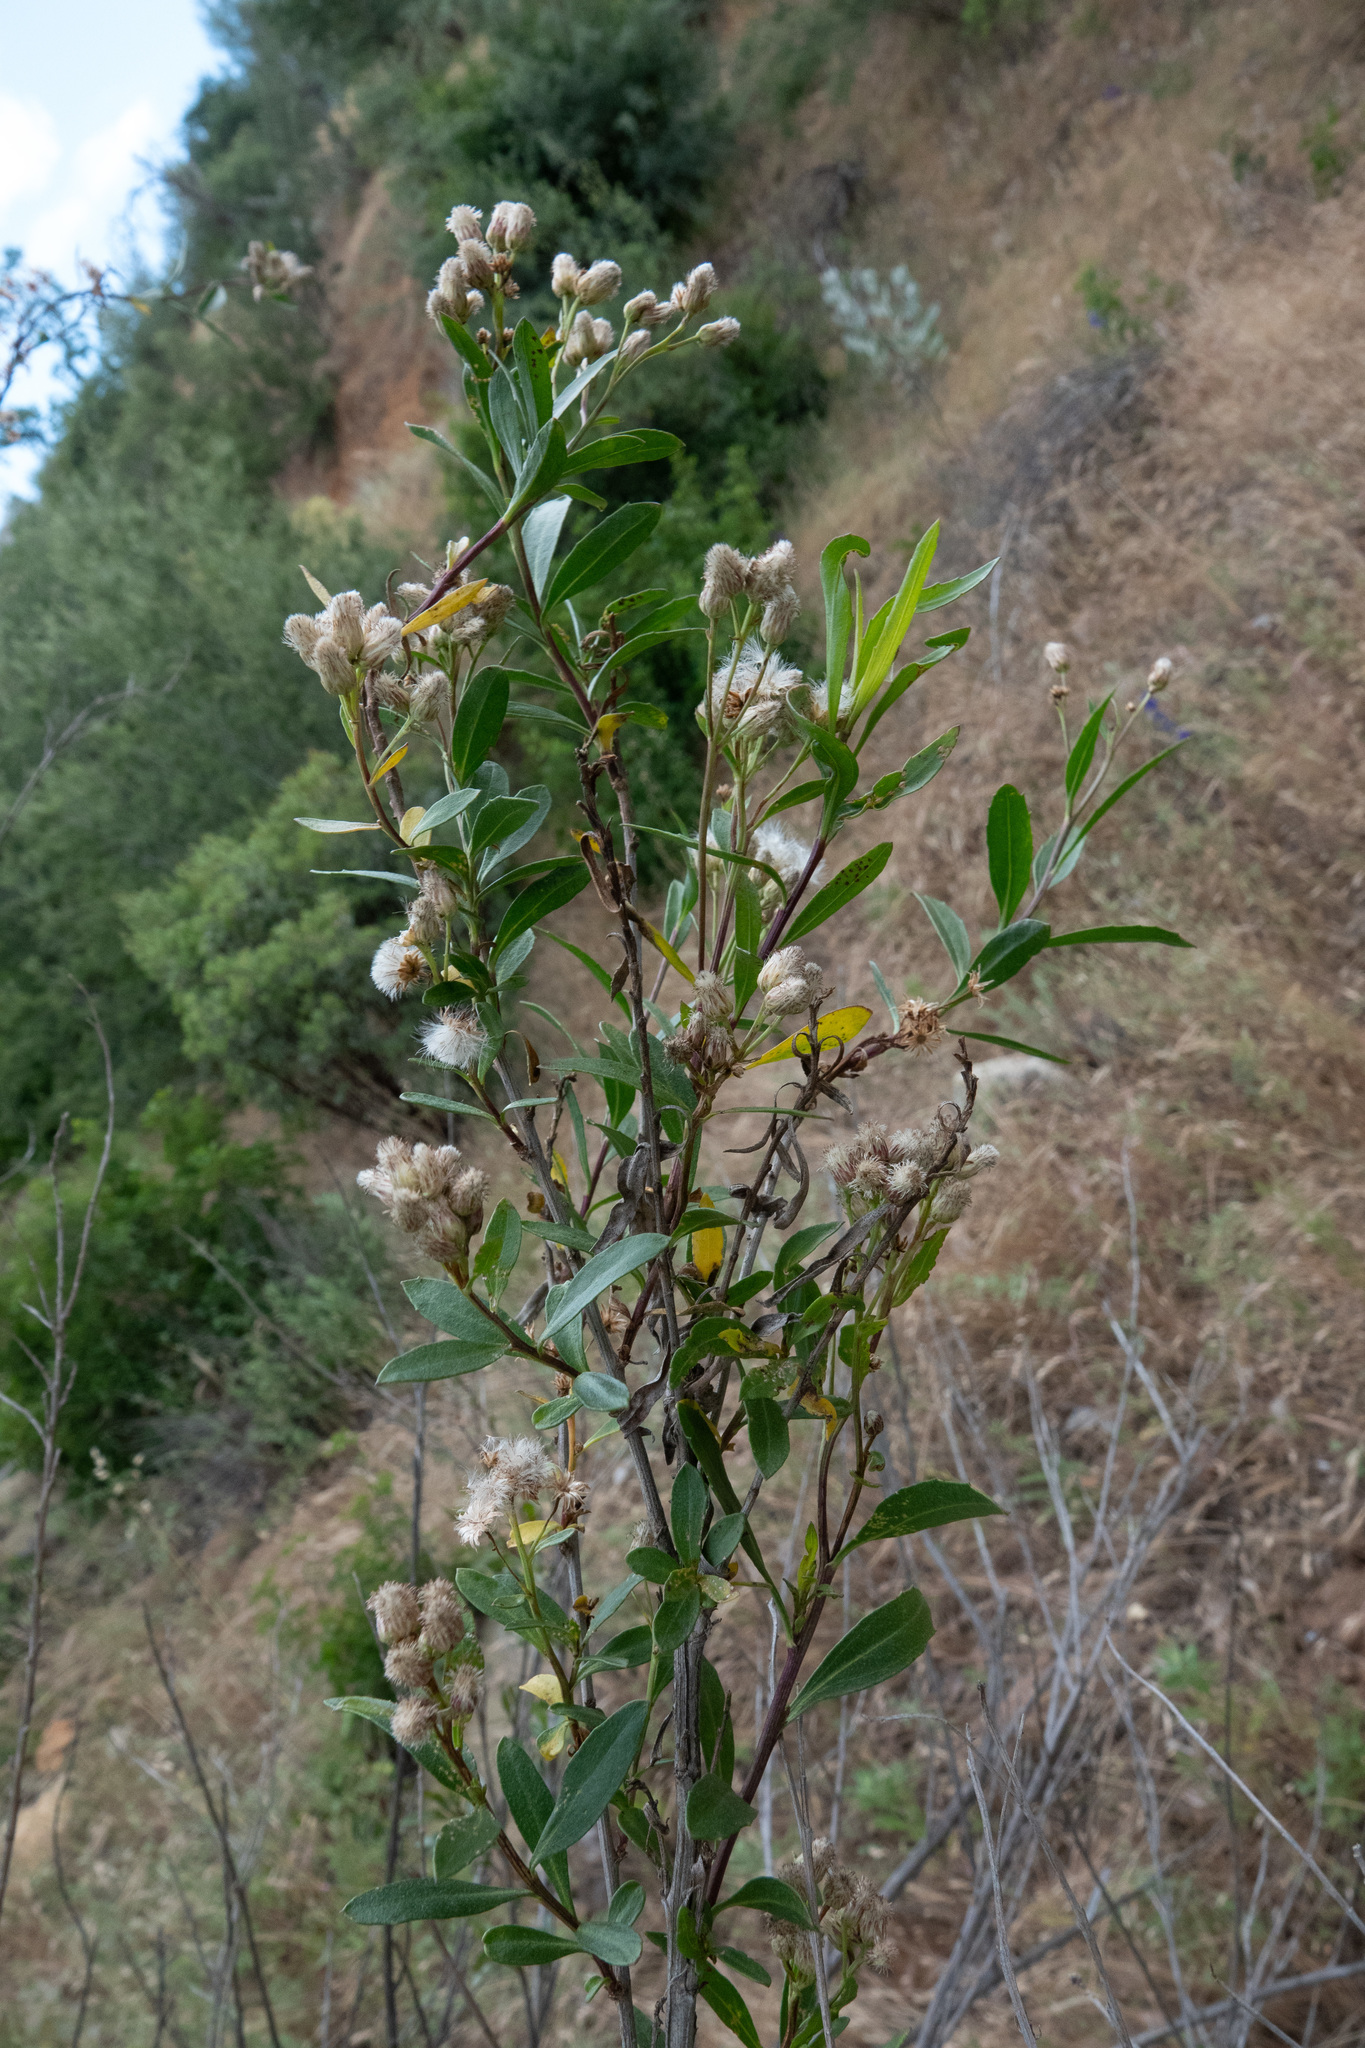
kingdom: Plantae
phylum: Tracheophyta
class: Magnoliopsida
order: Asterales
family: Asteraceae
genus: Baccharis
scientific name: Baccharis salicifolia
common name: Sticky baccharis
